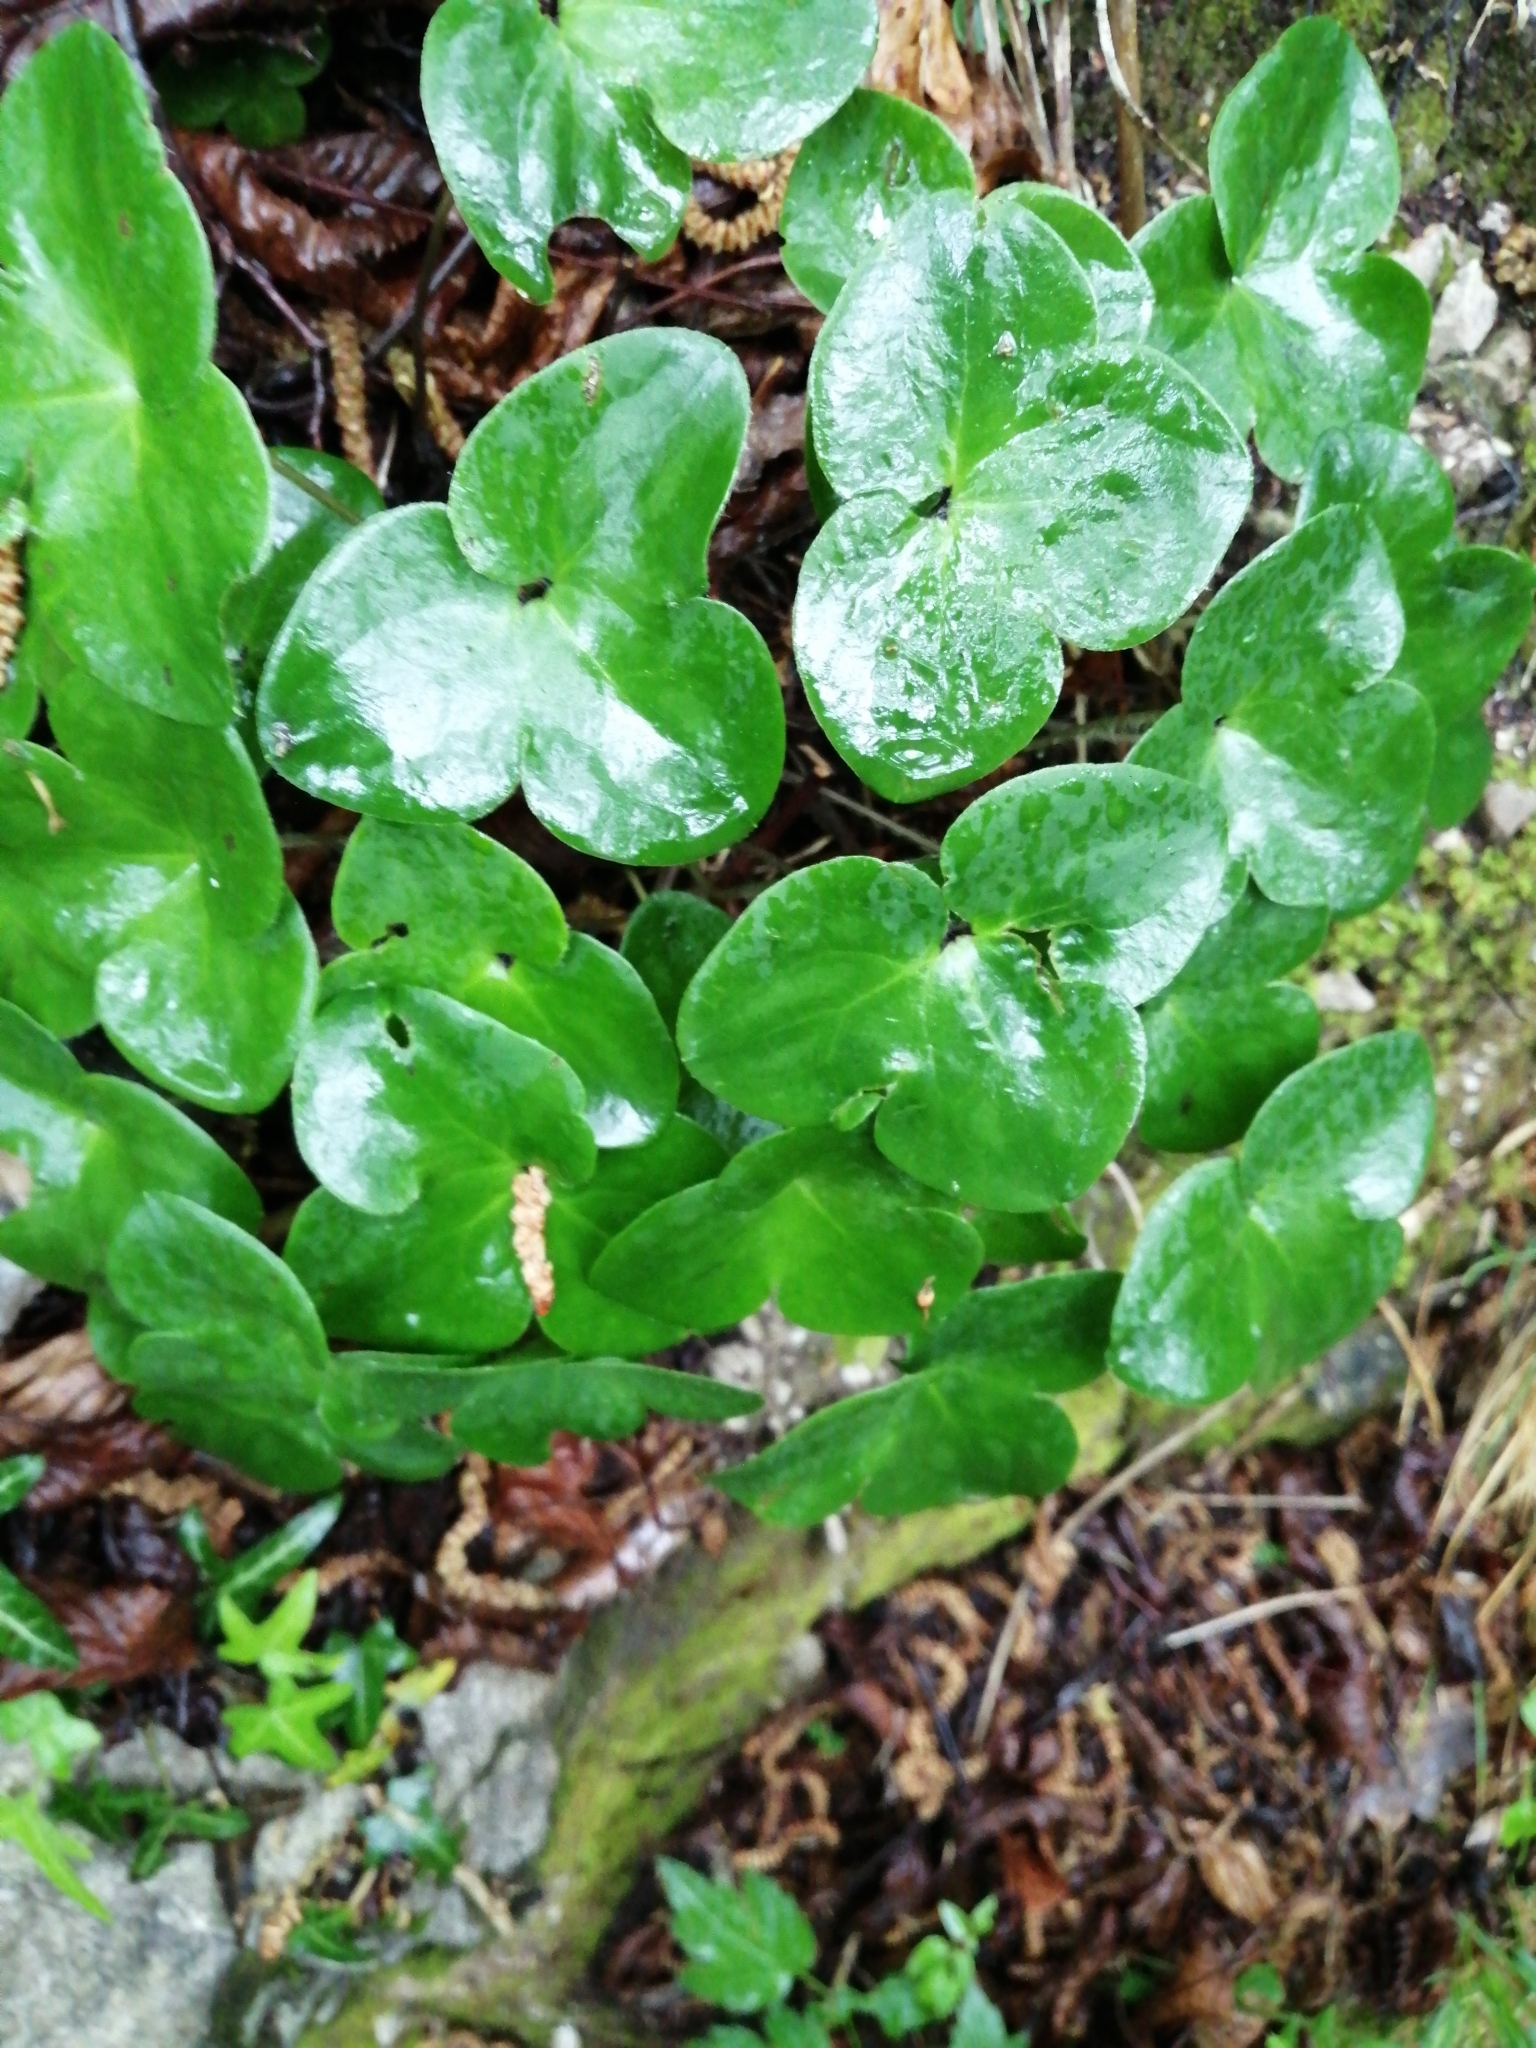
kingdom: Plantae
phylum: Tracheophyta
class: Magnoliopsida
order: Ranunculales
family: Ranunculaceae
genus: Hepatica
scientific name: Hepatica nobilis
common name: Liverleaf
